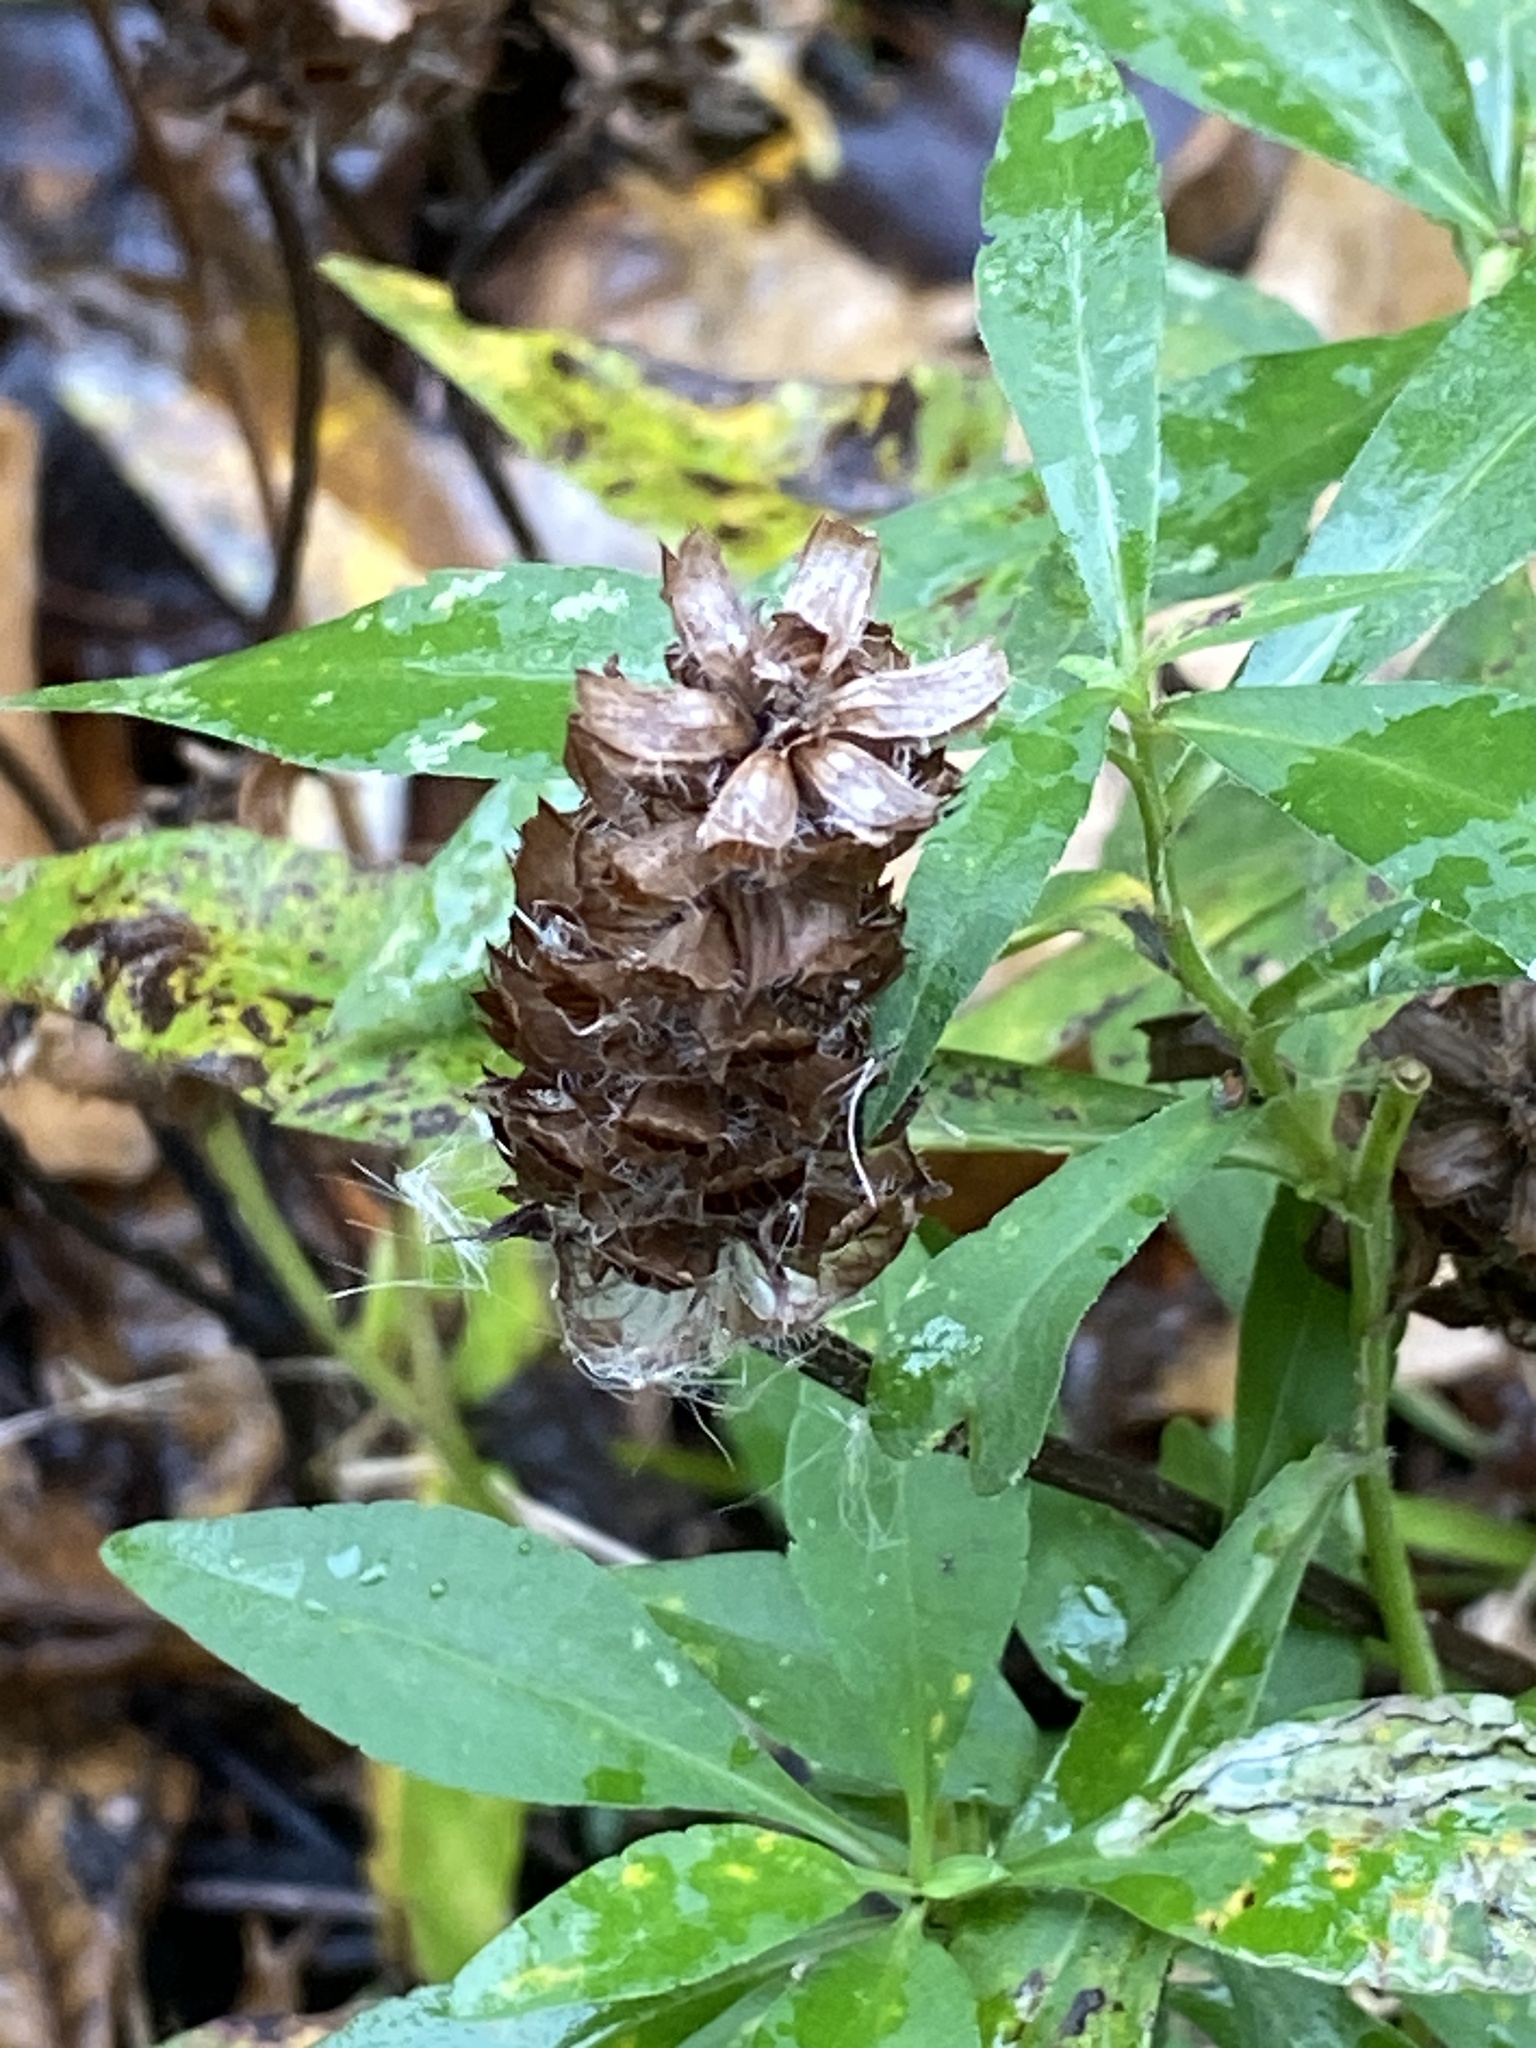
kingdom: Plantae
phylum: Tracheophyta
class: Magnoliopsida
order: Lamiales
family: Lamiaceae
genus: Prunella
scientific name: Prunella vulgaris
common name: Heal-all
